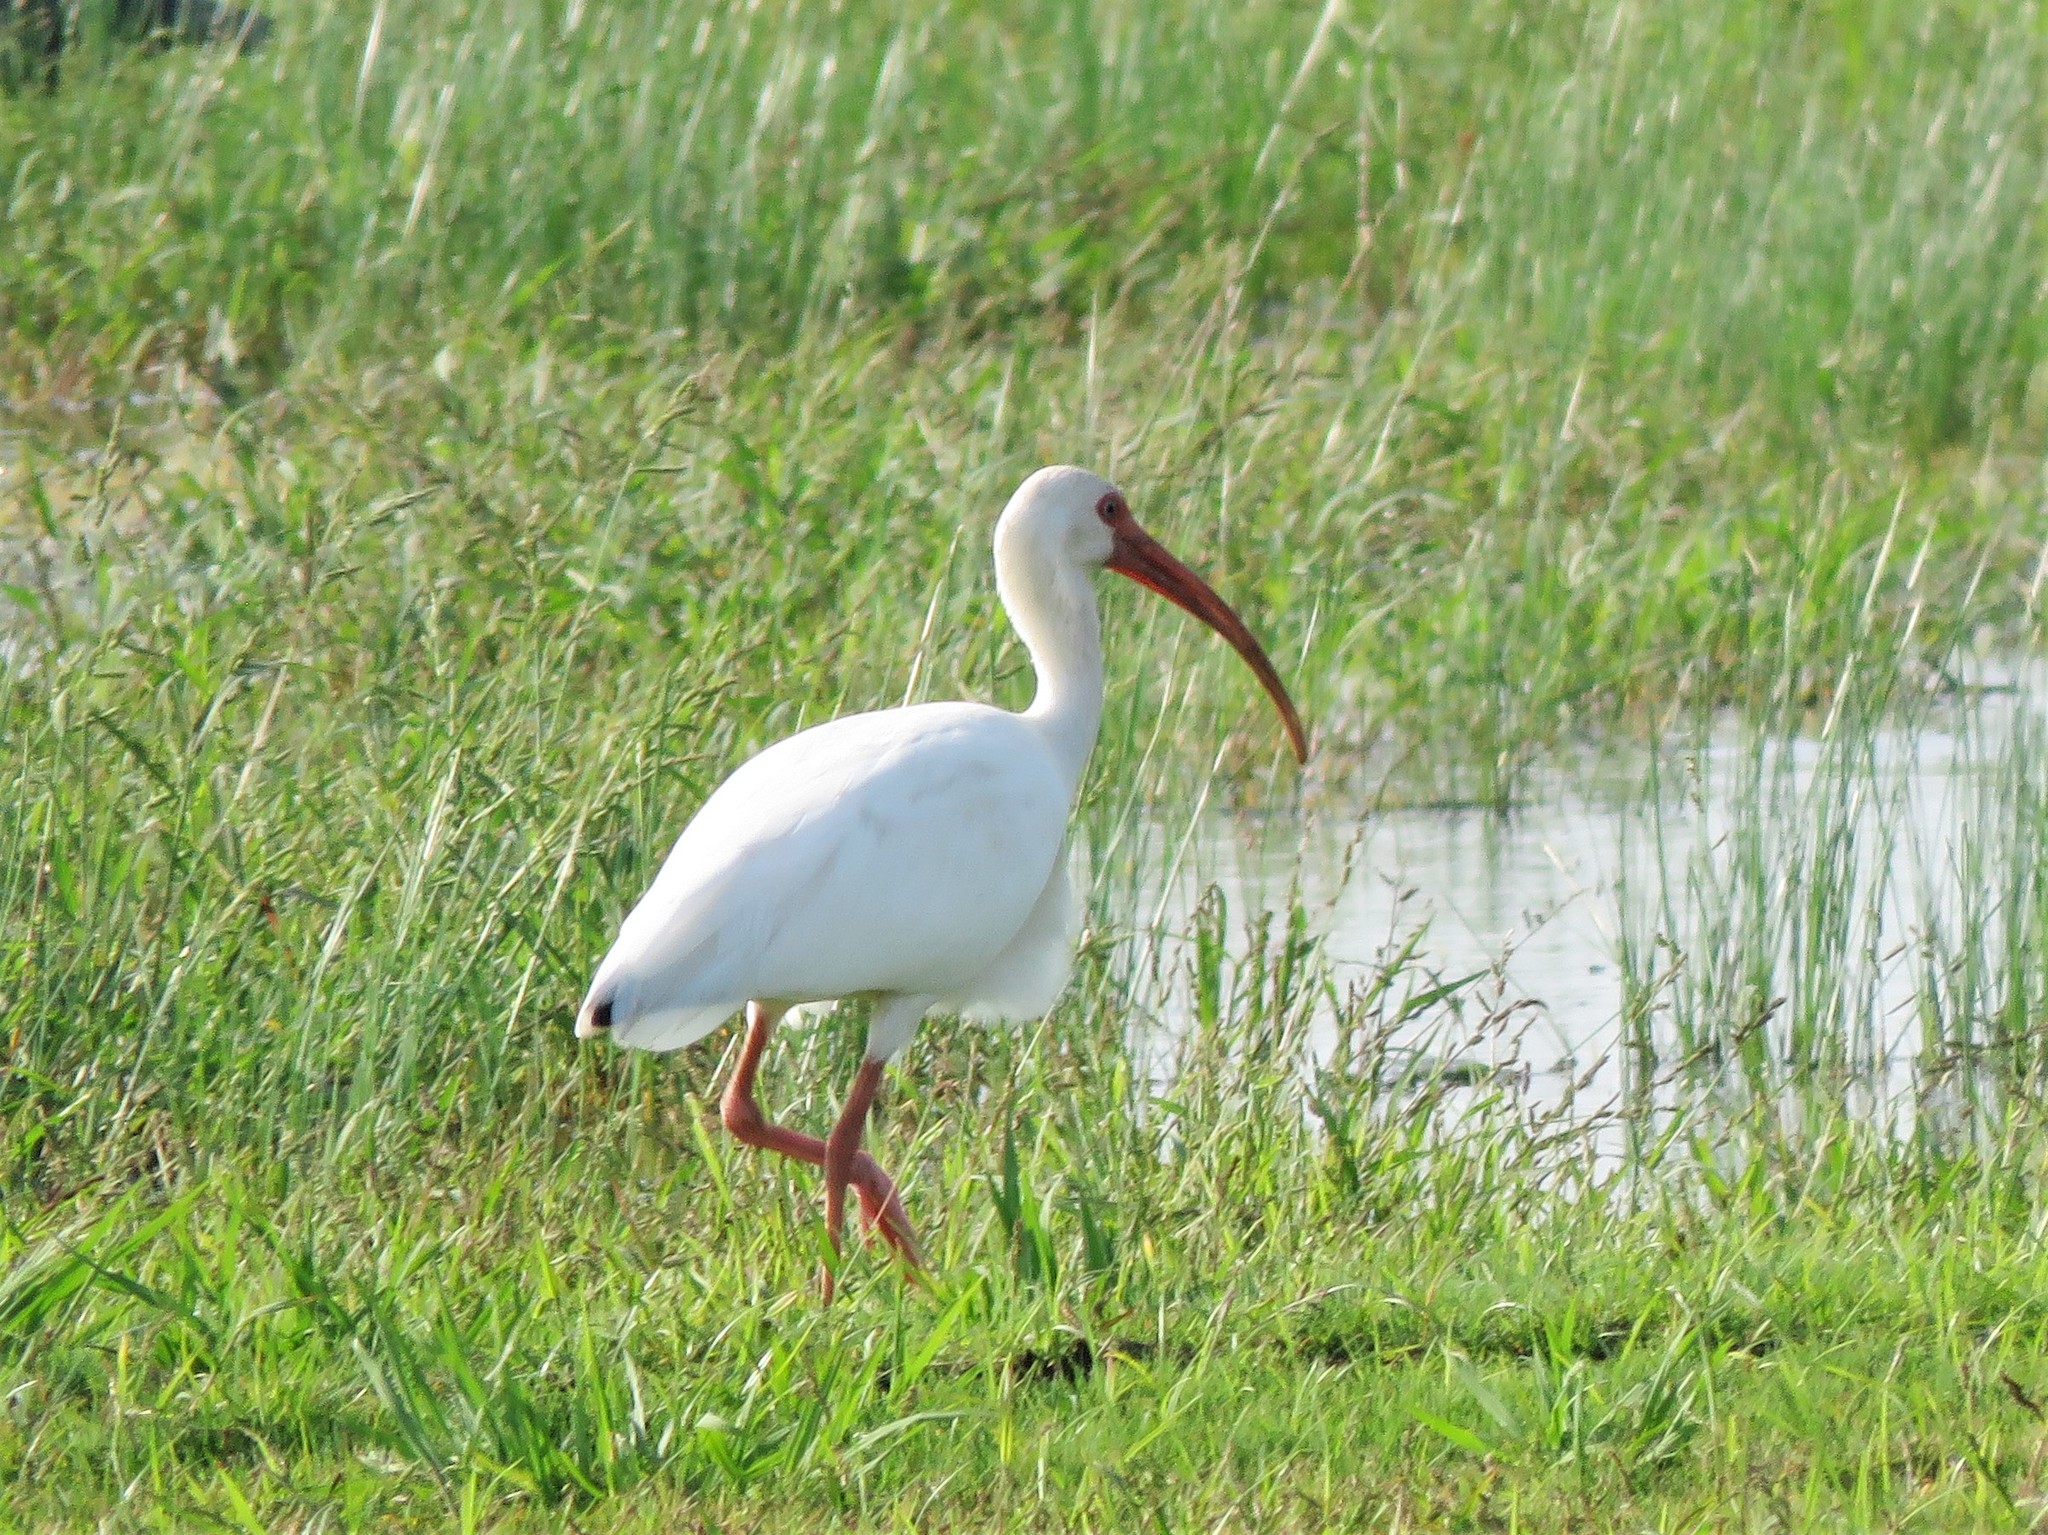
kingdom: Animalia
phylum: Chordata
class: Aves
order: Pelecaniformes
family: Threskiornithidae
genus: Eudocimus
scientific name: Eudocimus albus
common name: White ibis
